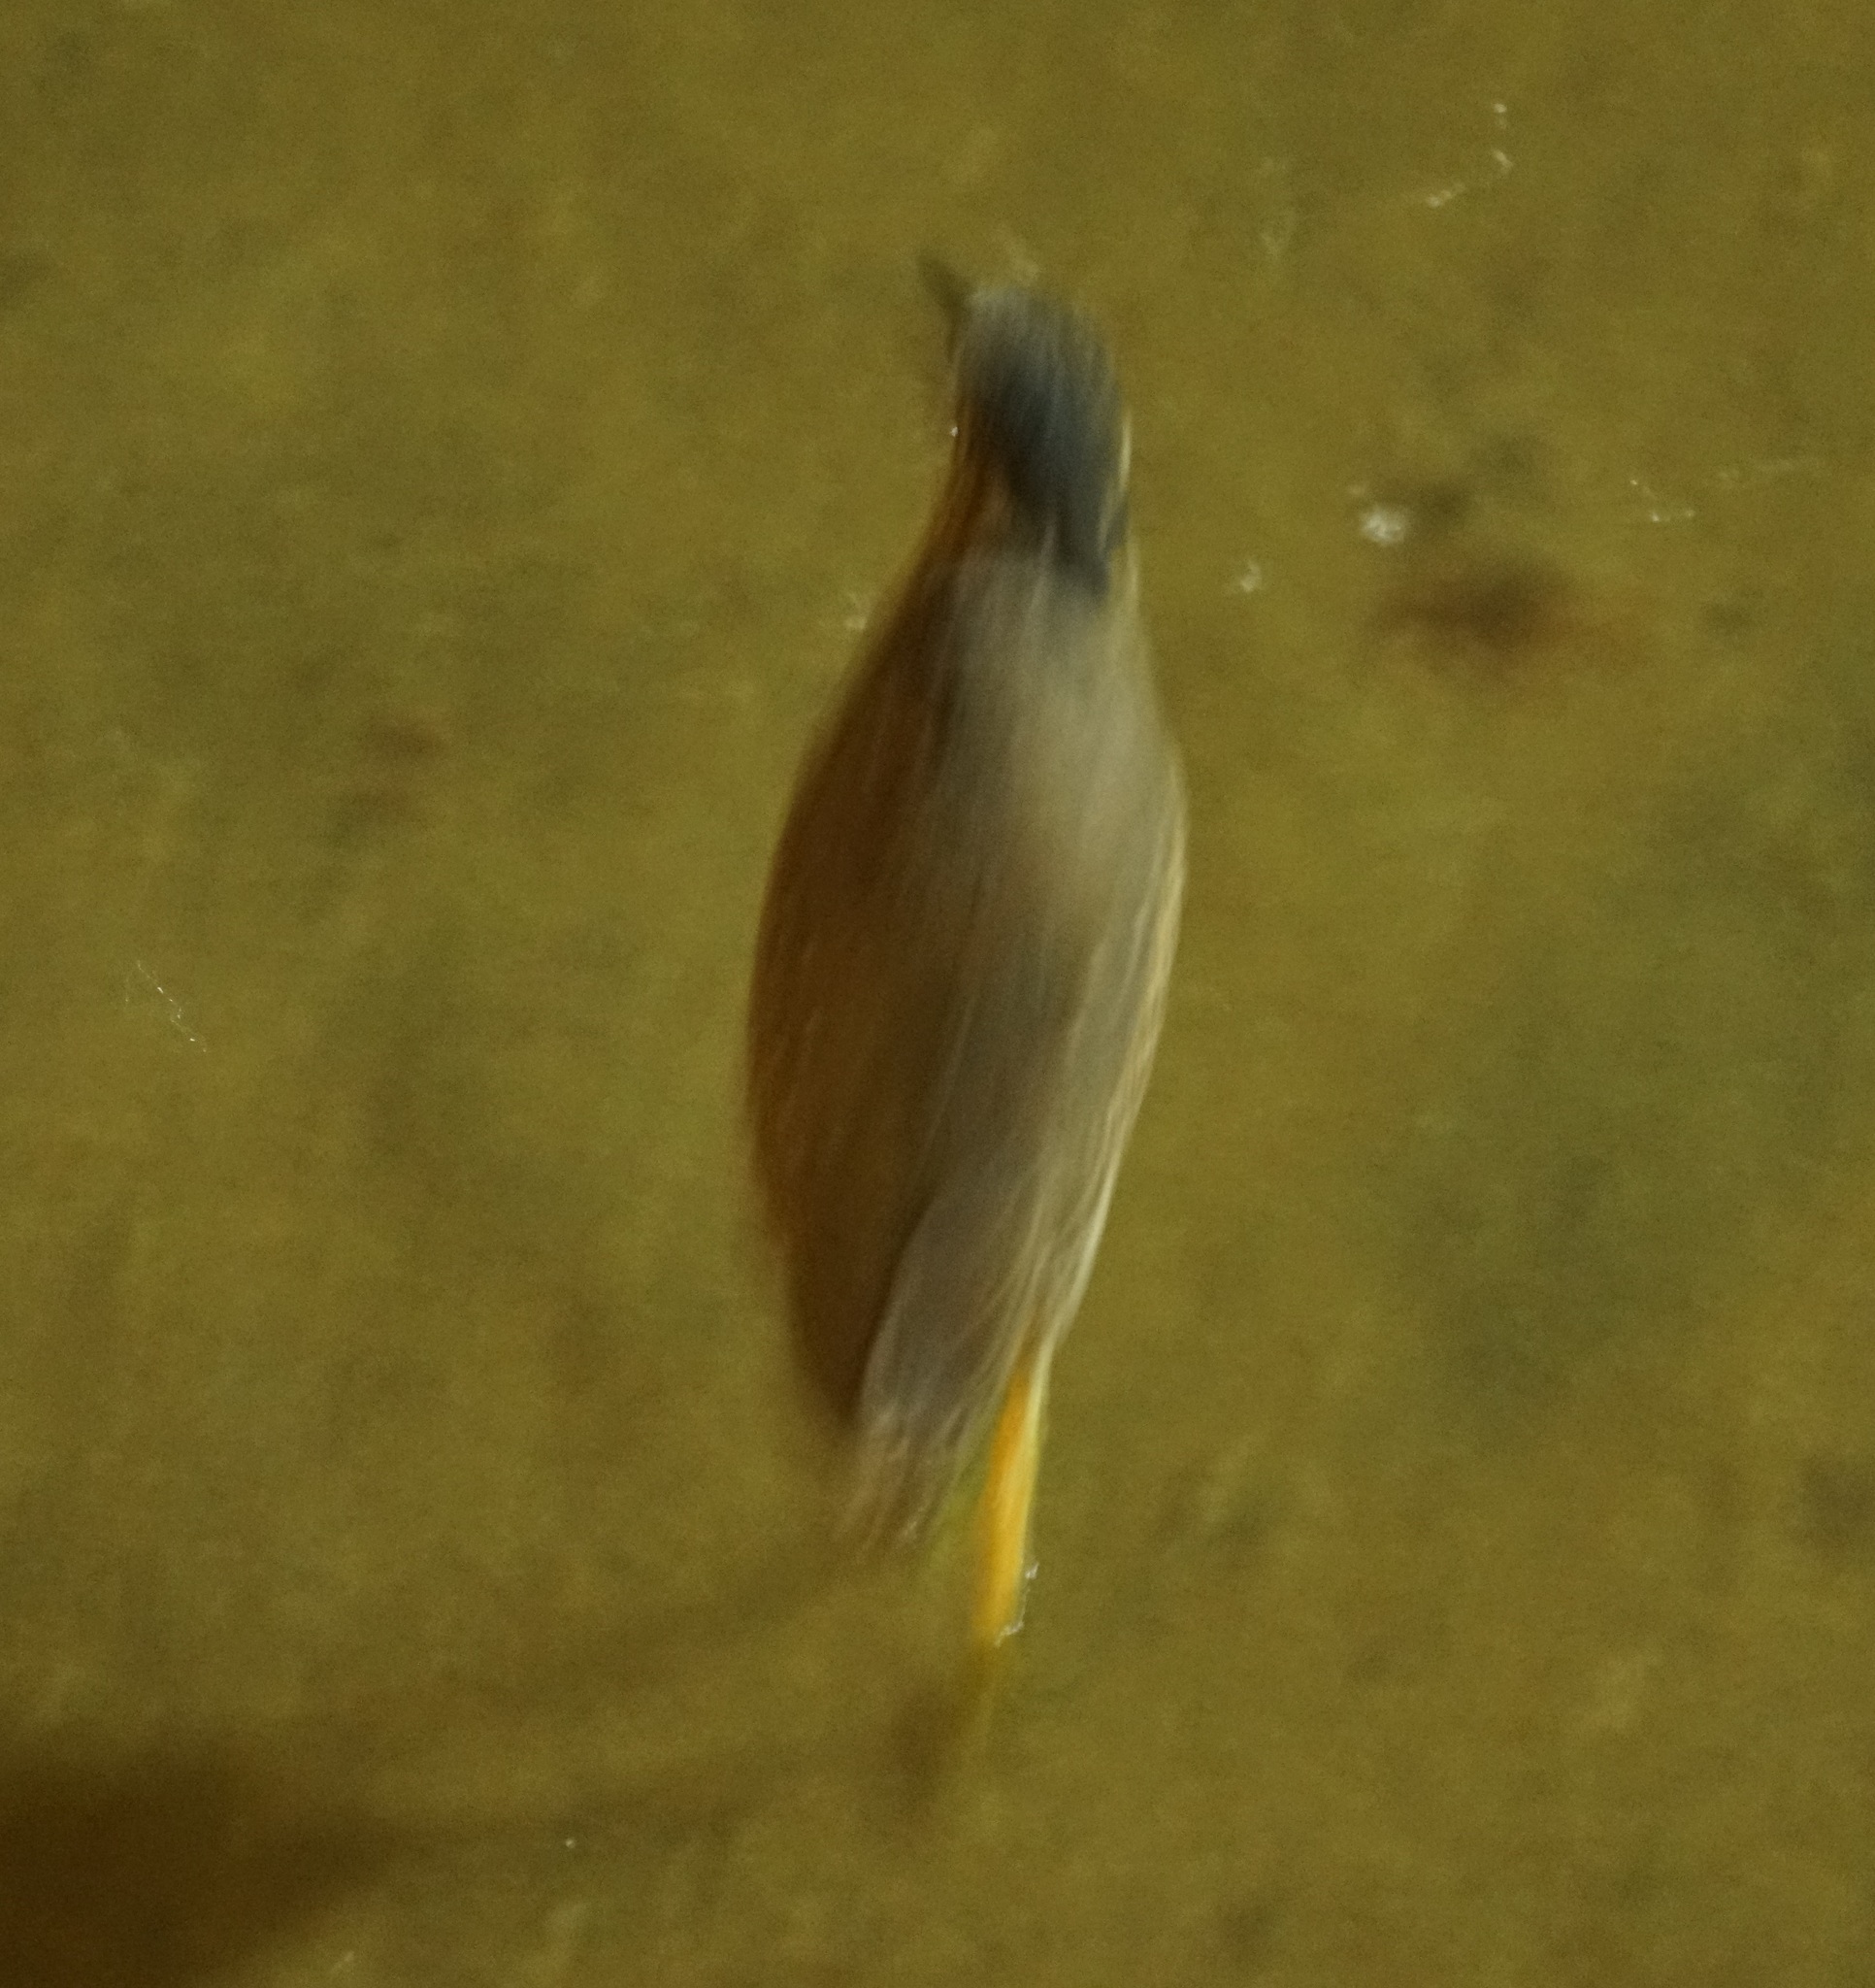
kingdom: Animalia
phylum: Chordata
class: Aves
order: Pelecaniformes
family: Ardeidae
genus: Butorides
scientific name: Butorides striata
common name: Striated heron
